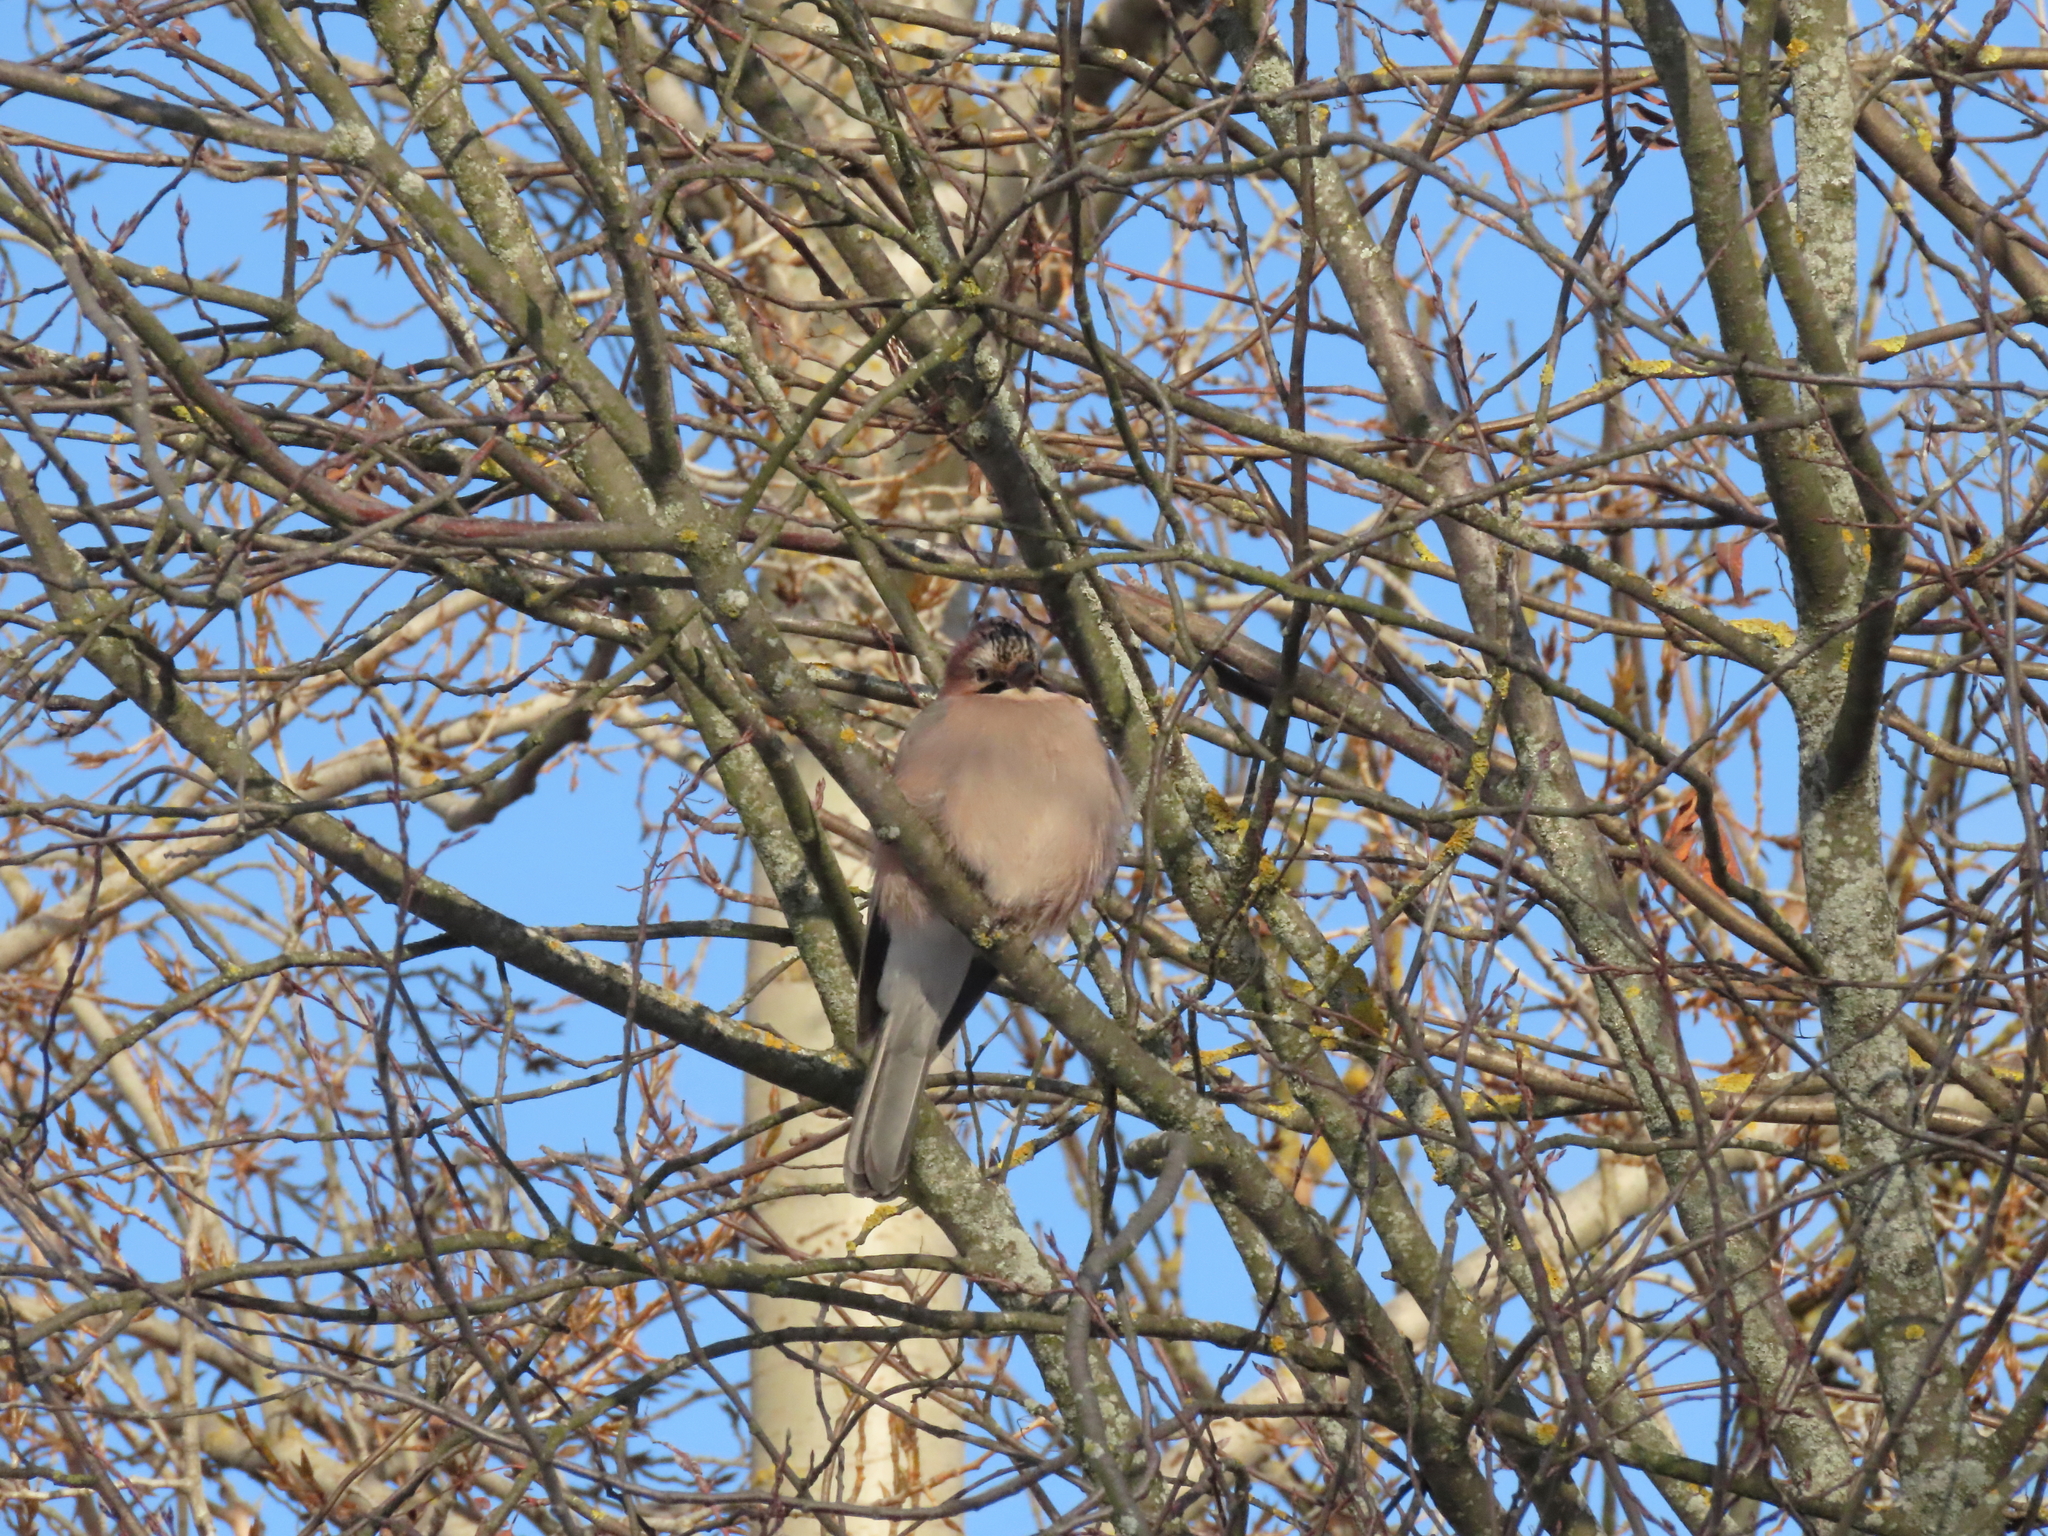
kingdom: Animalia
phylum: Chordata
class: Aves
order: Passeriformes
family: Corvidae
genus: Garrulus
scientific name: Garrulus glandarius
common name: Eurasian jay
